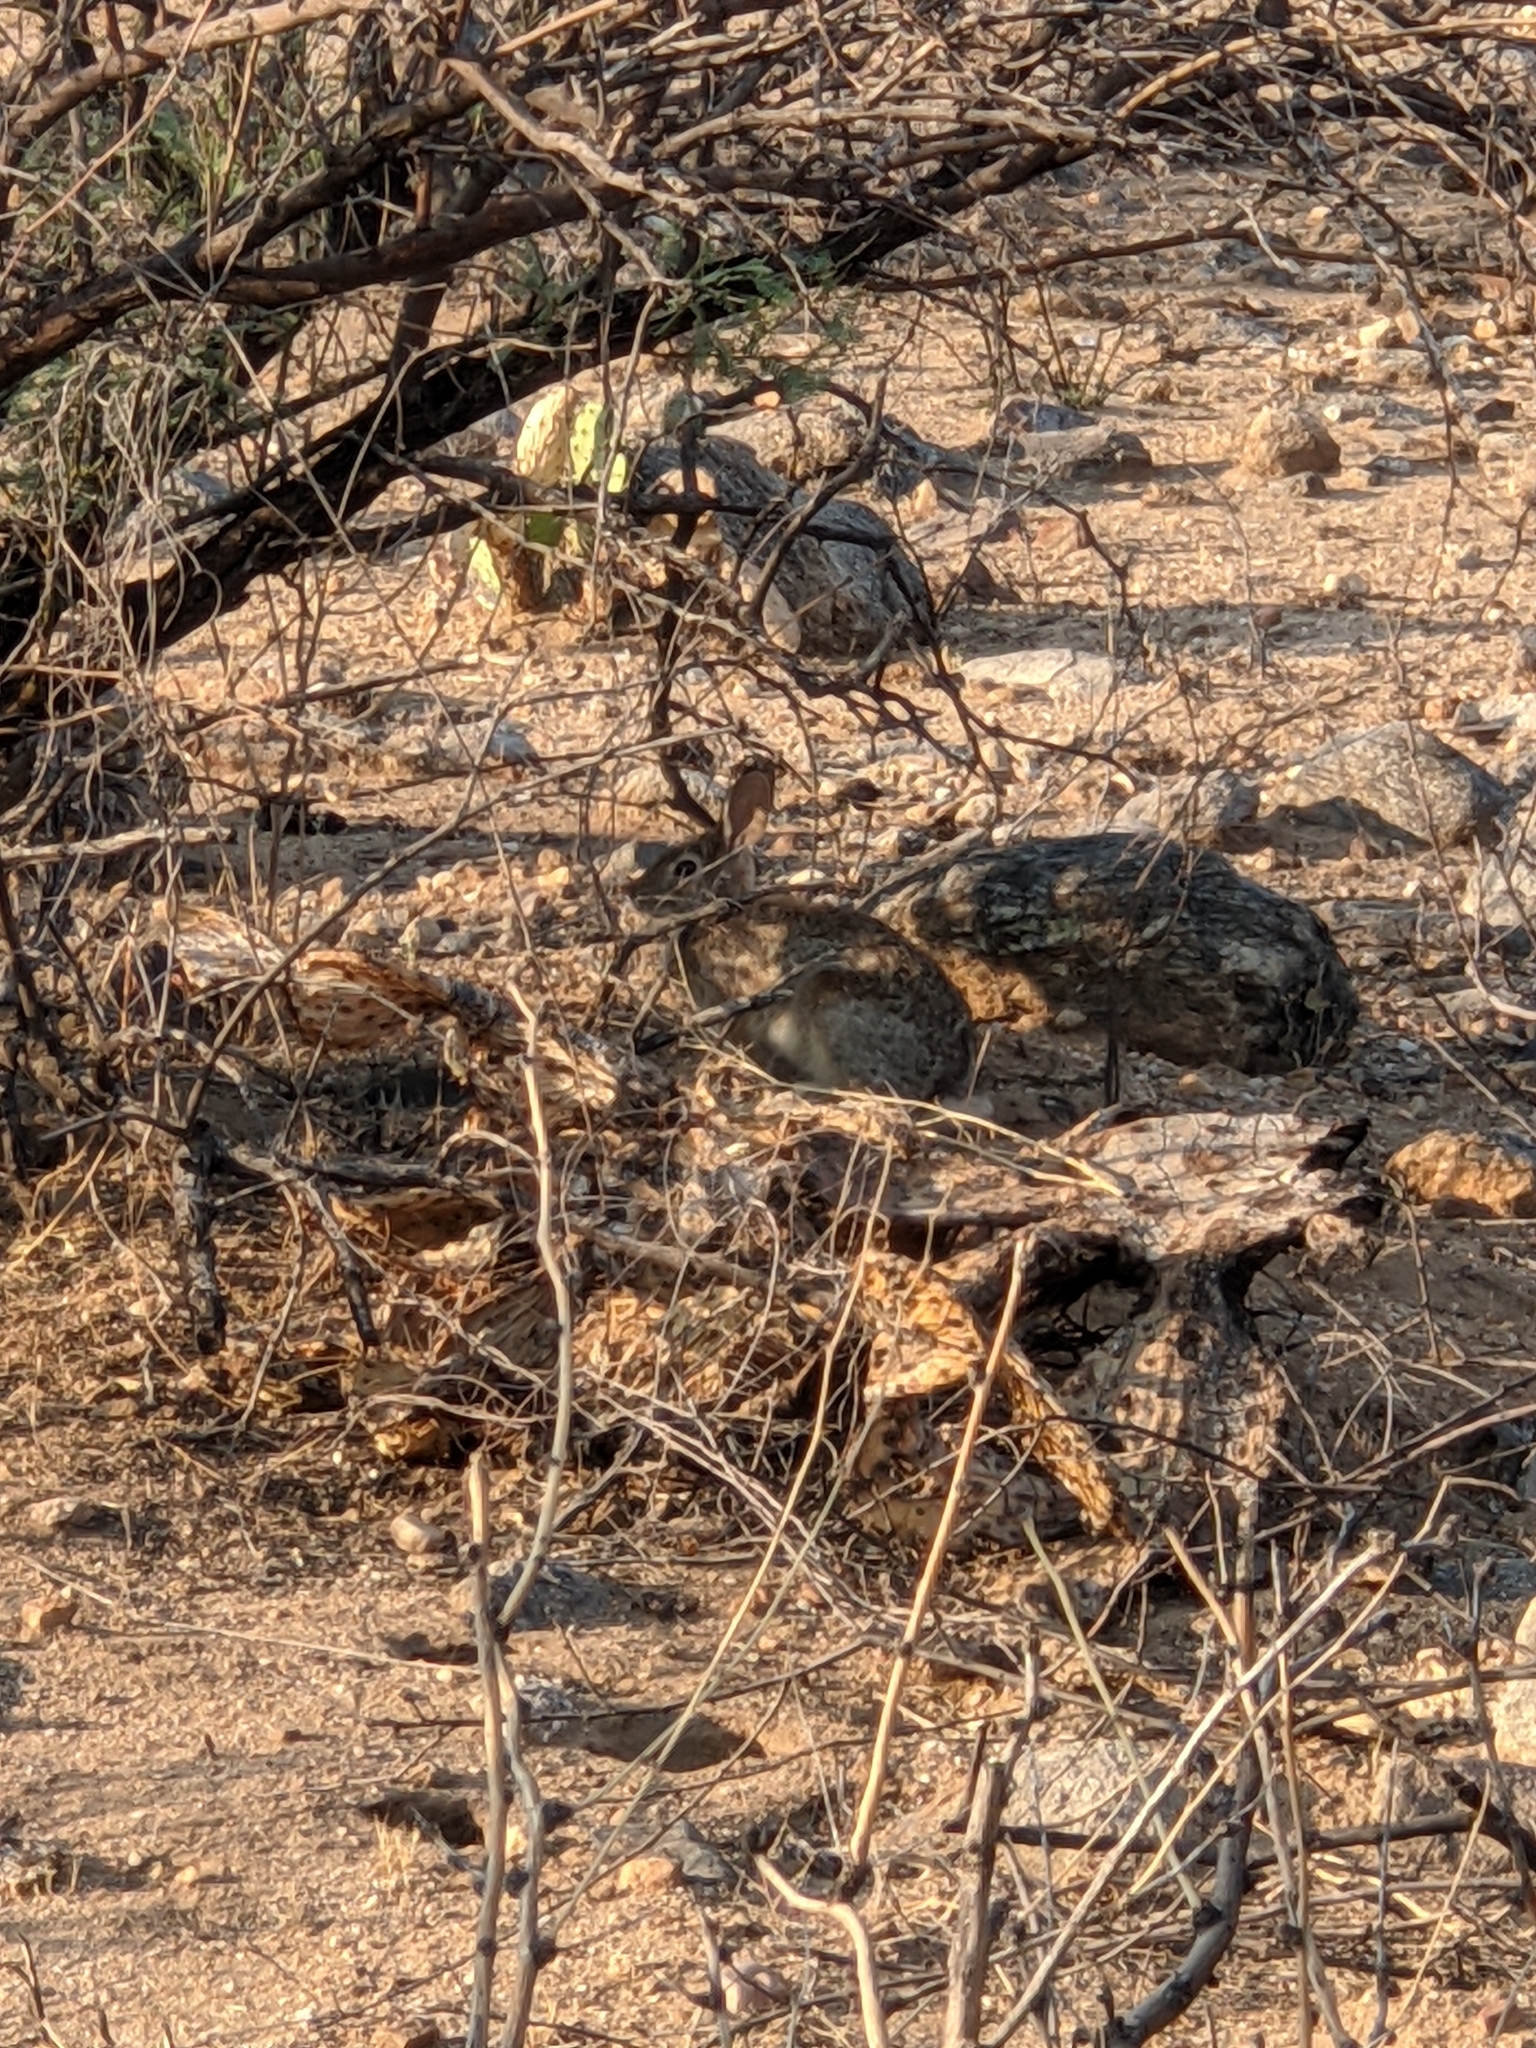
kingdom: Animalia
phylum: Chordata
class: Mammalia
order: Lagomorpha
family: Leporidae
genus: Sylvilagus
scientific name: Sylvilagus audubonii
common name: Desert cottontail
